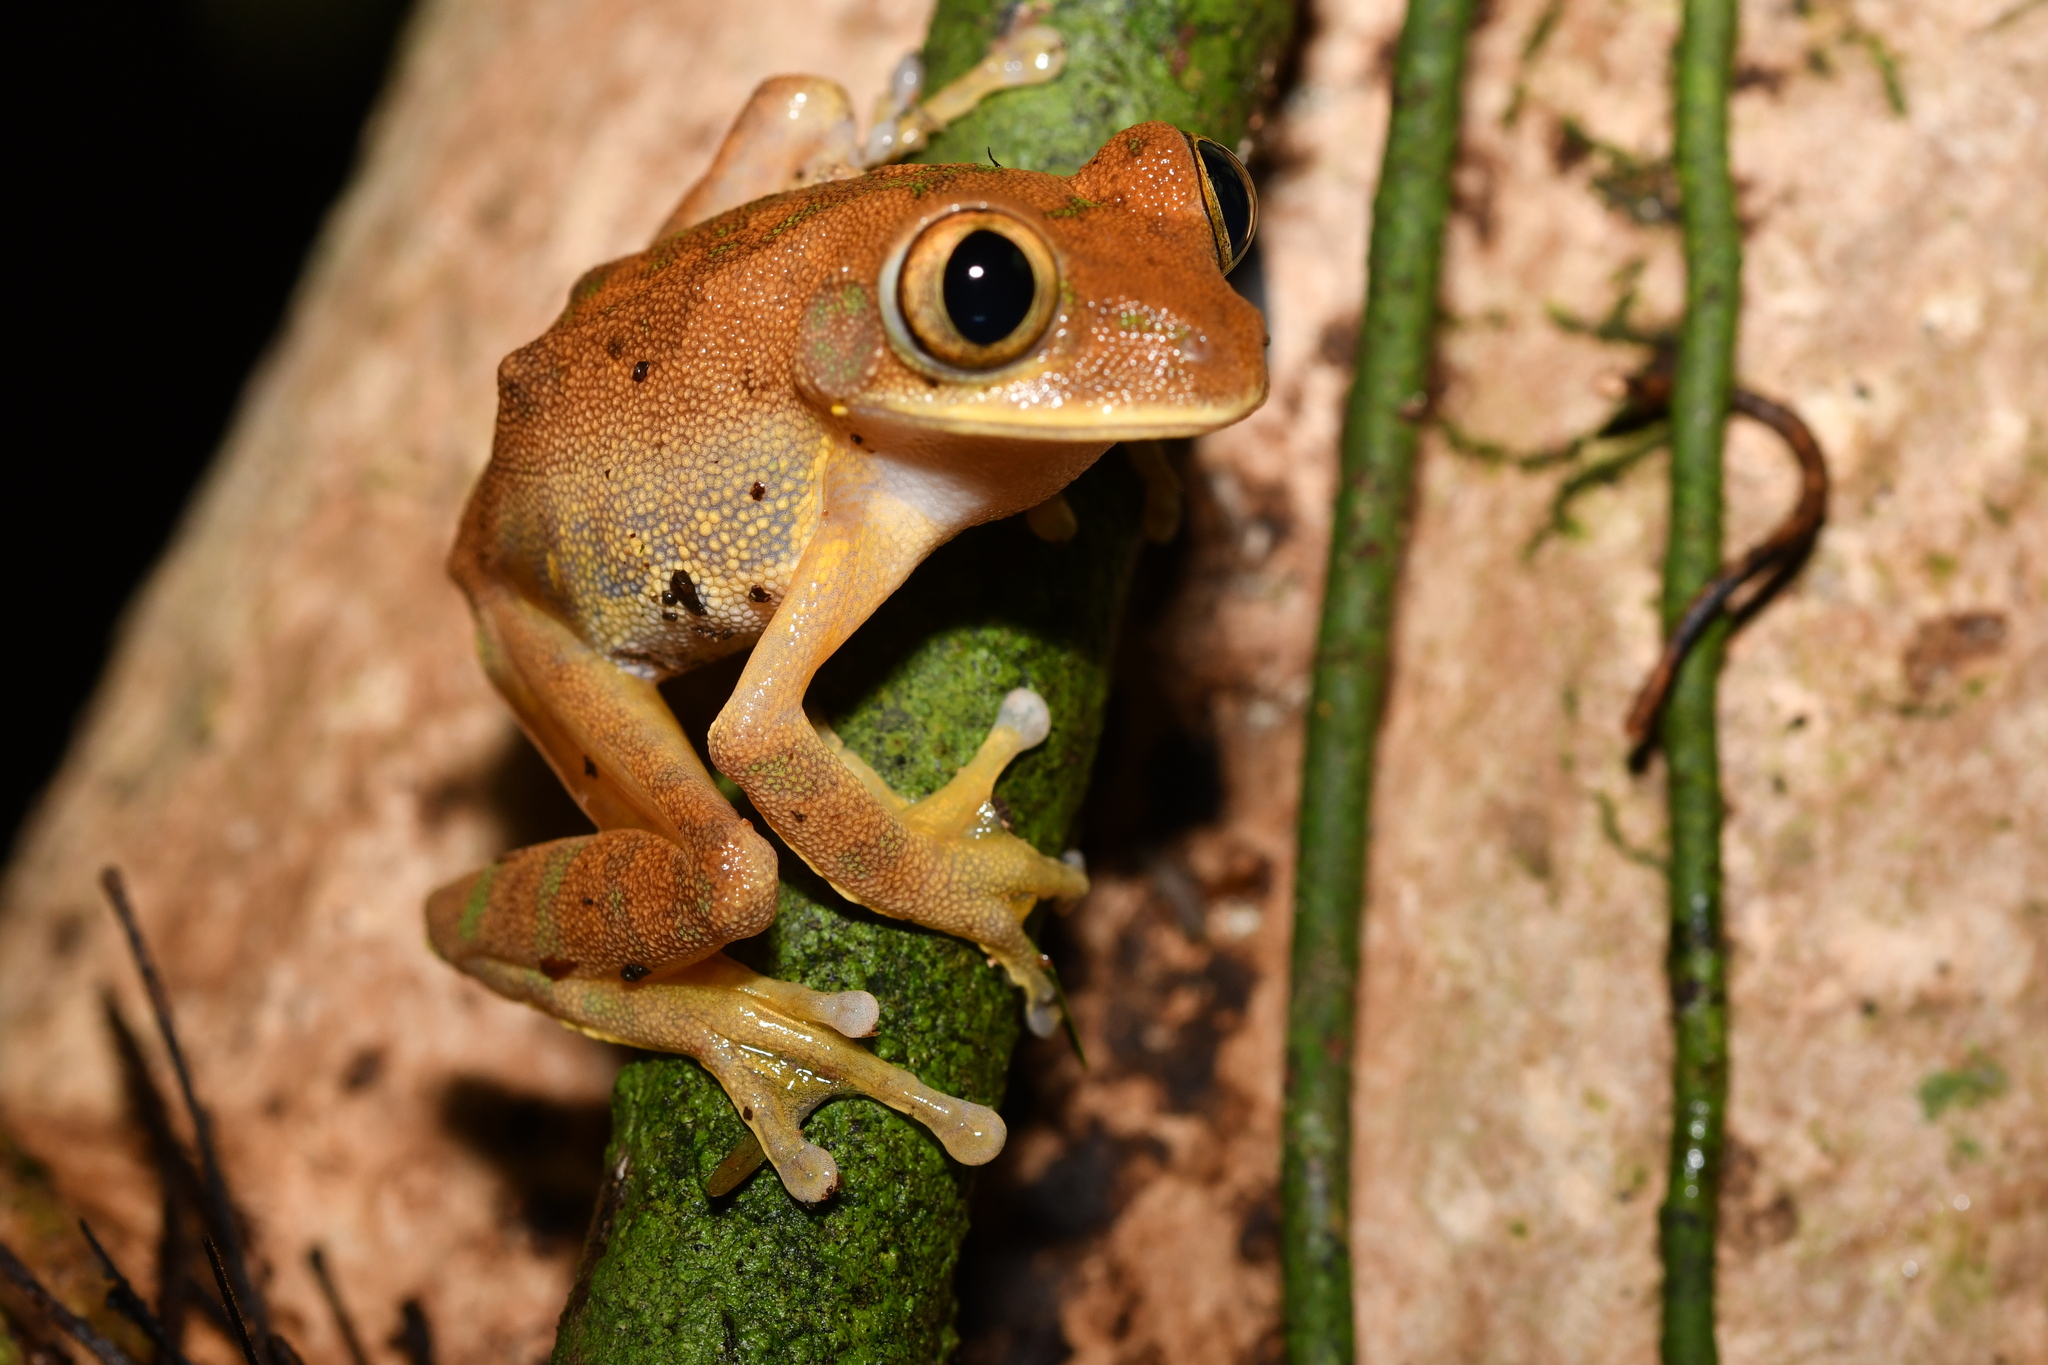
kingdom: Animalia
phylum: Chordata
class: Amphibia
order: Anura
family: Arthroleptidae
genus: Leptopelis
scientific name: Leptopelis occidentalis
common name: Tai forest treefrog
